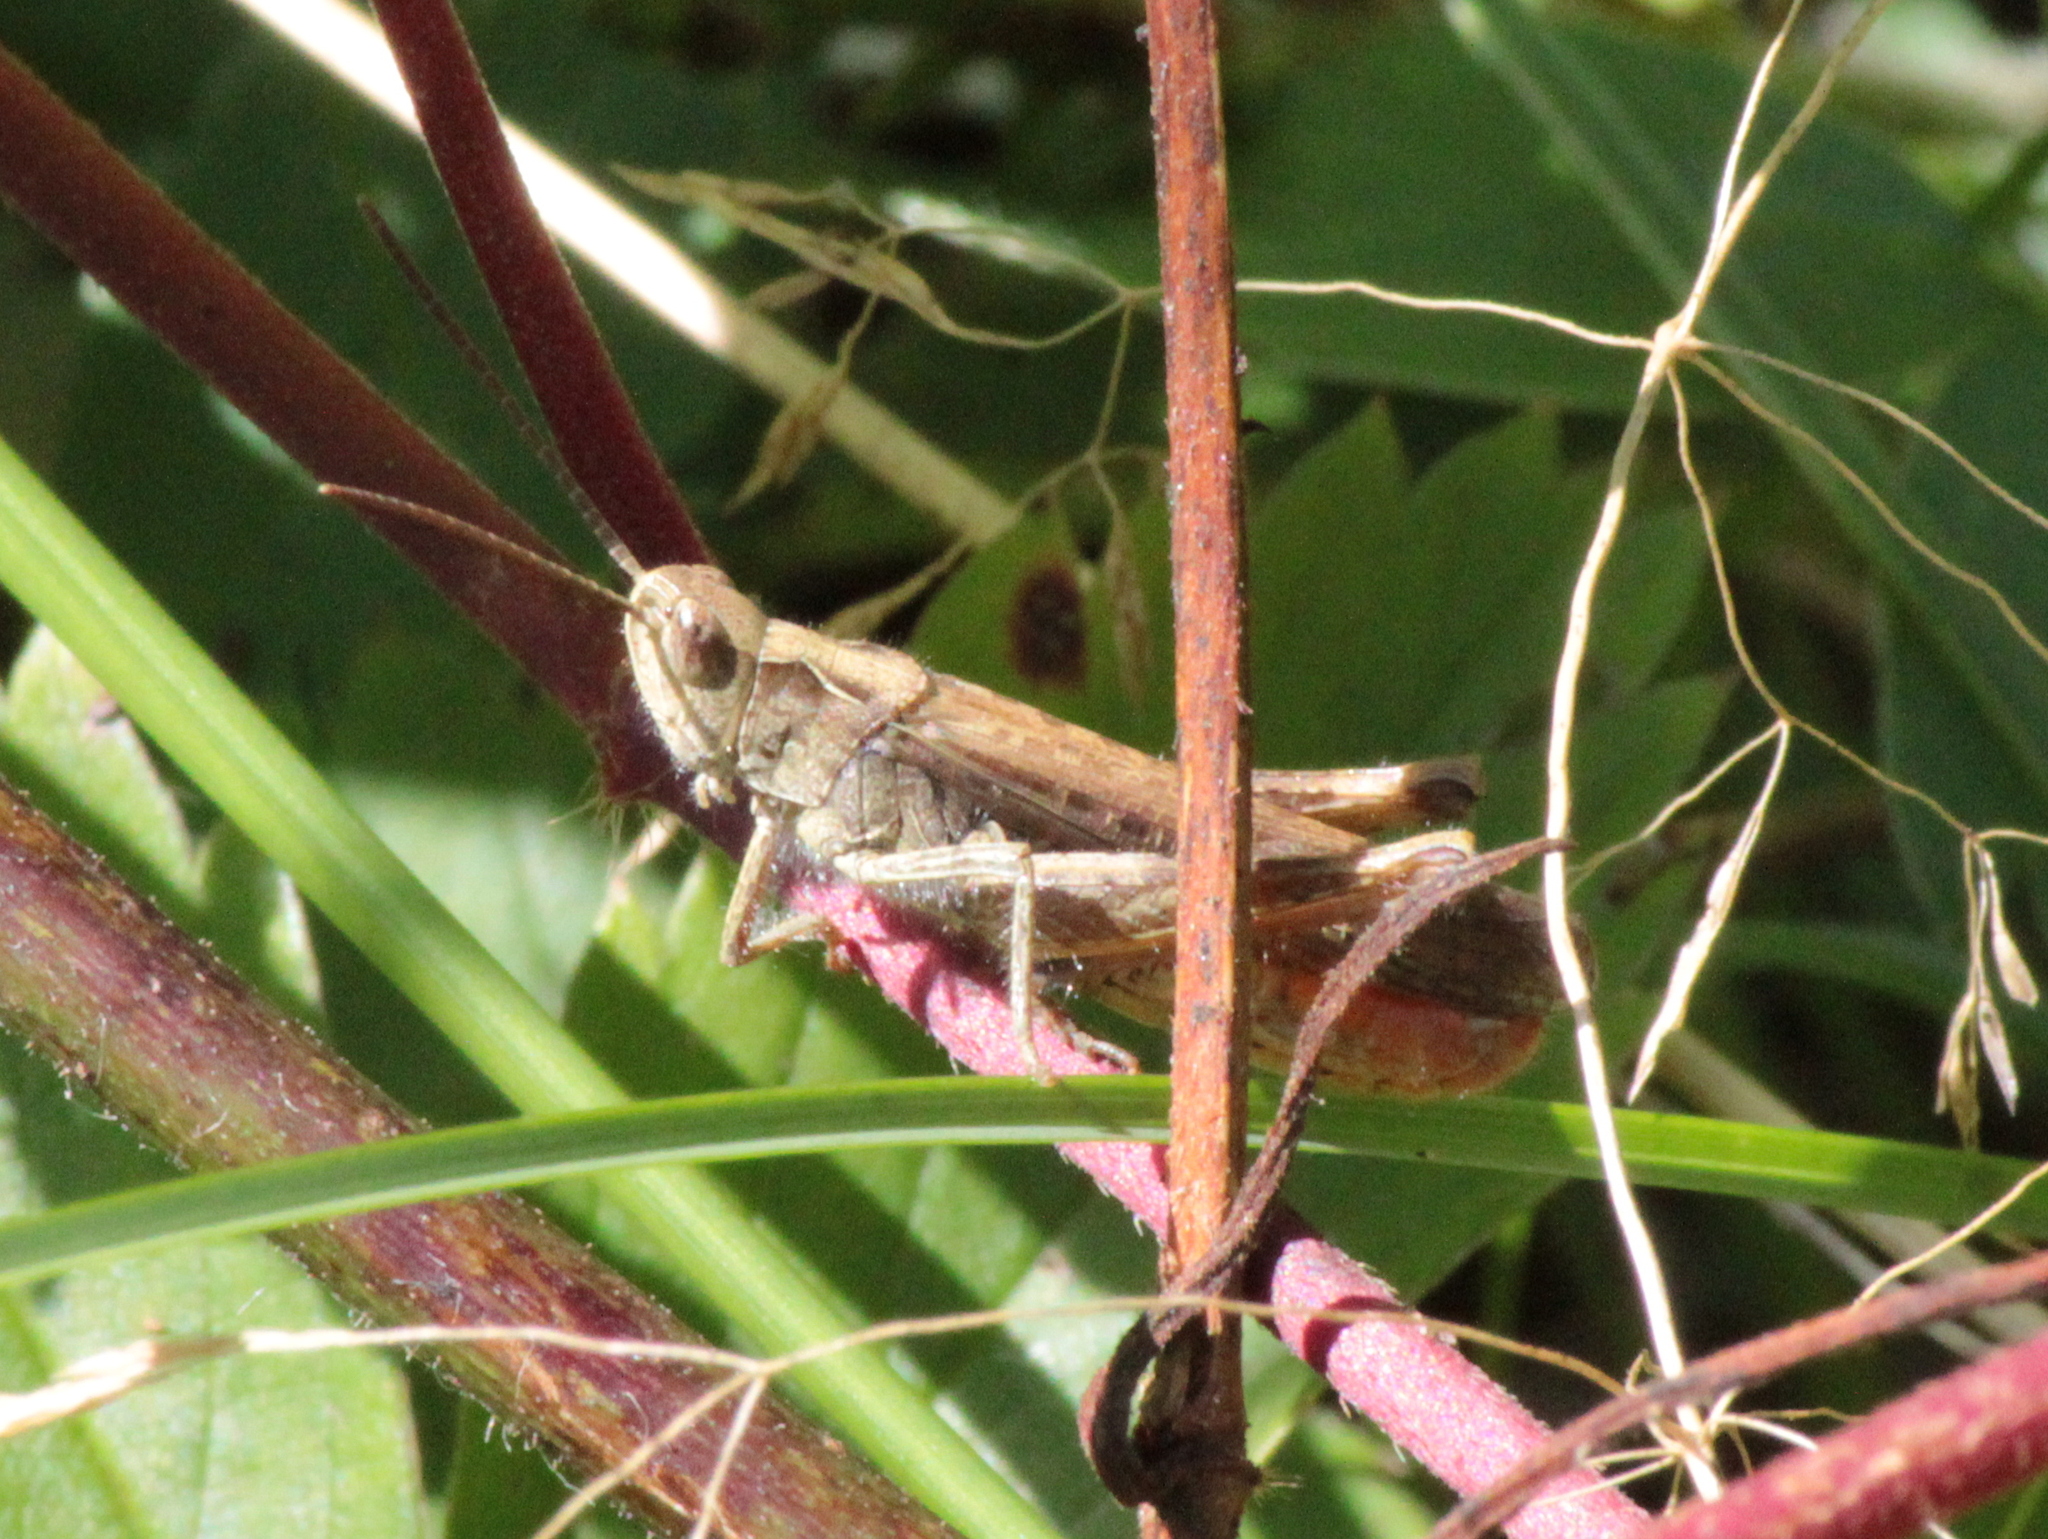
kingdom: Animalia
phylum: Arthropoda
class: Insecta
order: Orthoptera
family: Acrididae
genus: Chorthippus
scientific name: Chorthippus brunneus
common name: Field grasshopper
